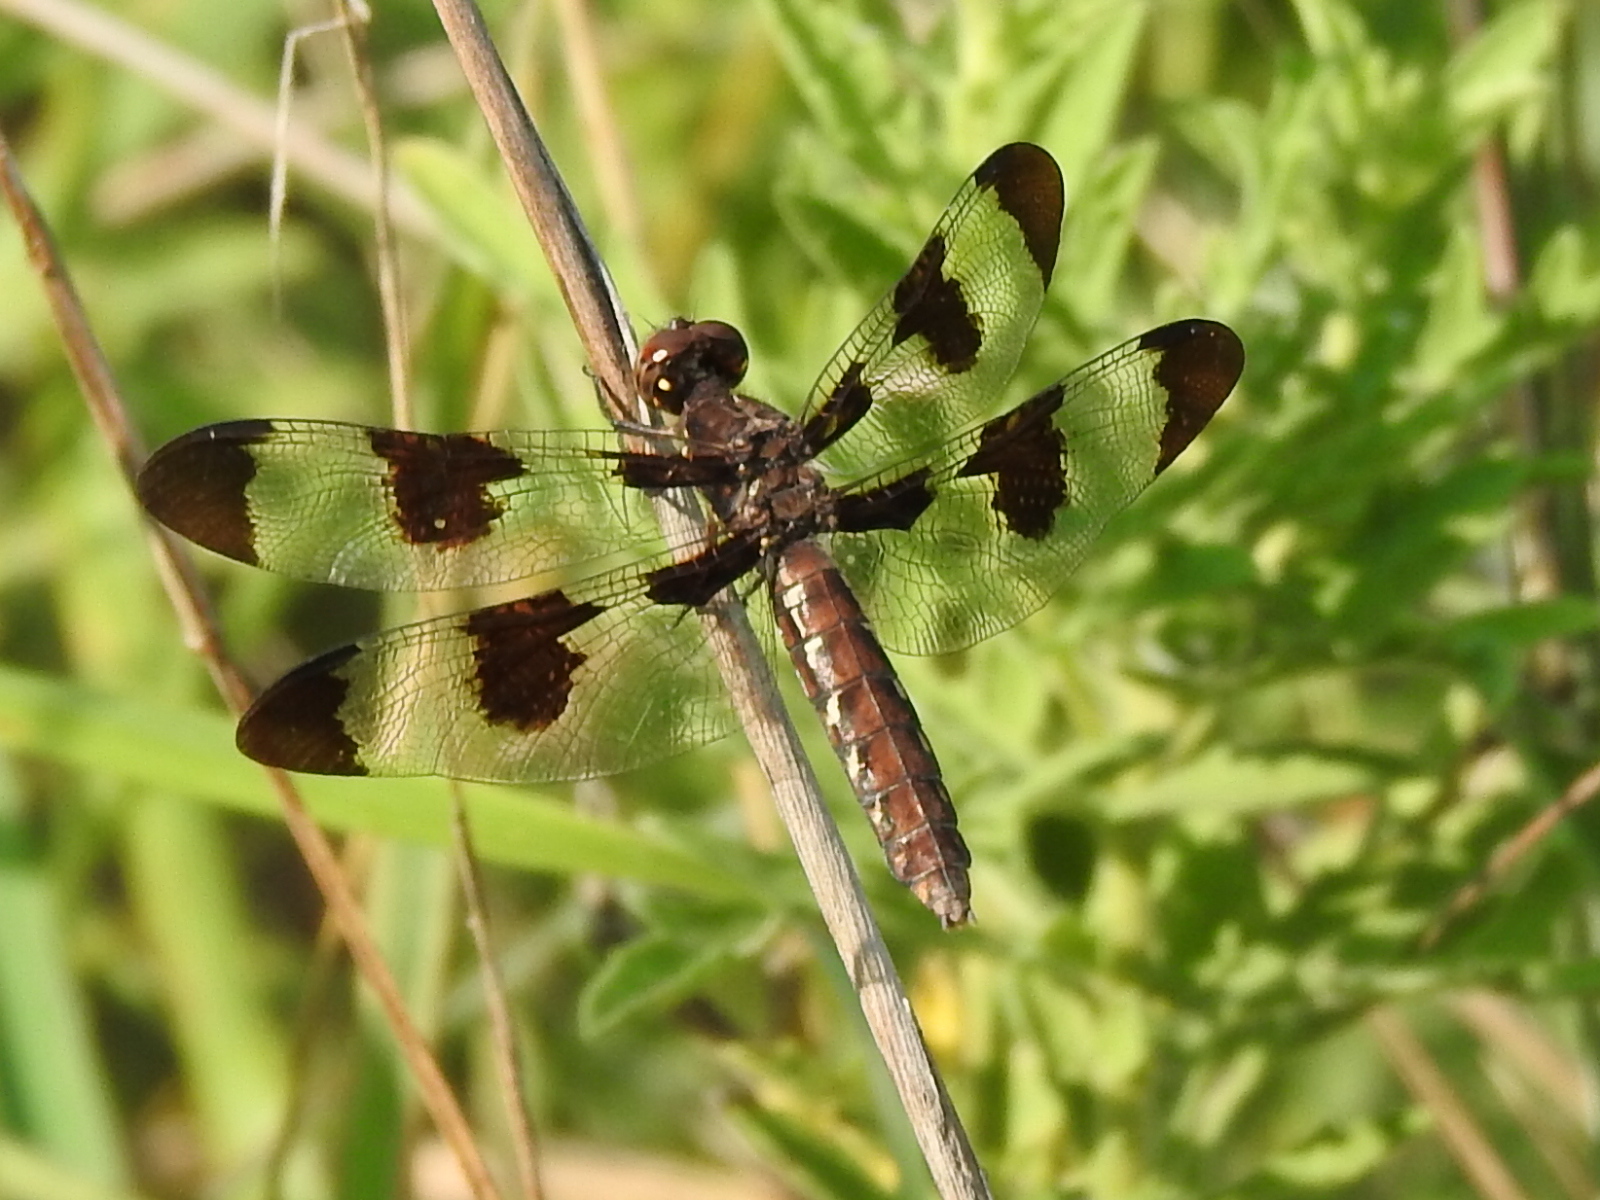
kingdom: Animalia
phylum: Arthropoda
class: Insecta
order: Odonata
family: Libellulidae
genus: Plathemis
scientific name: Plathemis lydia
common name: Common whitetail
